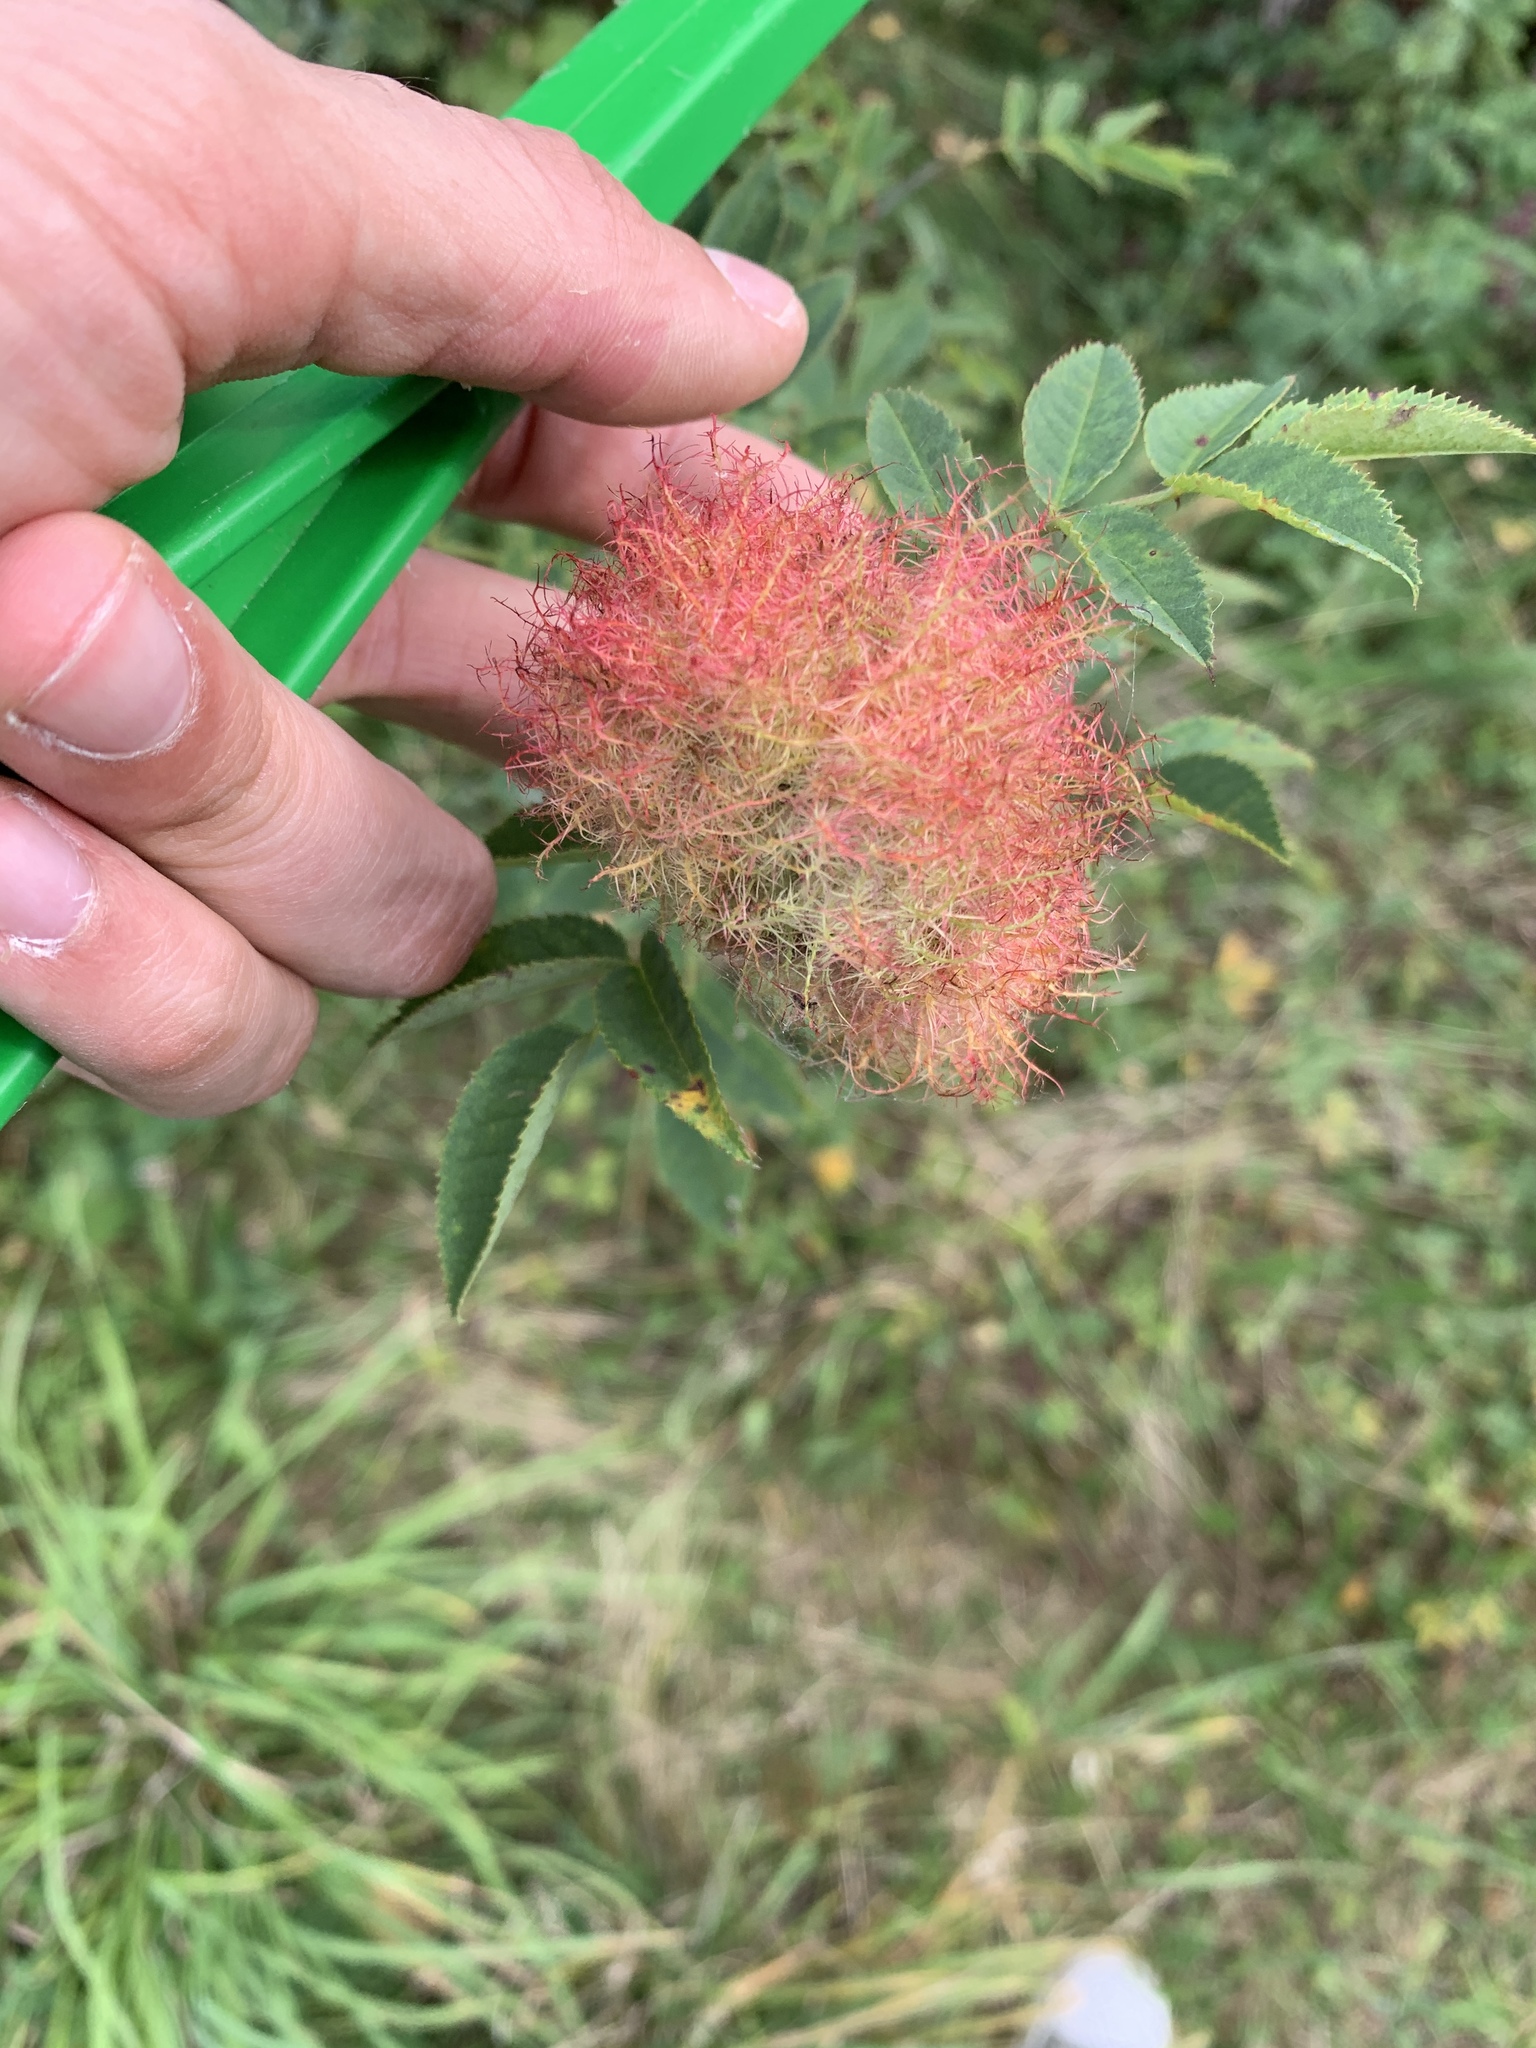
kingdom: Animalia
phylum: Arthropoda
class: Insecta
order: Hymenoptera
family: Cynipidae
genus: Diplolepis
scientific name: Diplolepis rosae
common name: Bedeguar gall
